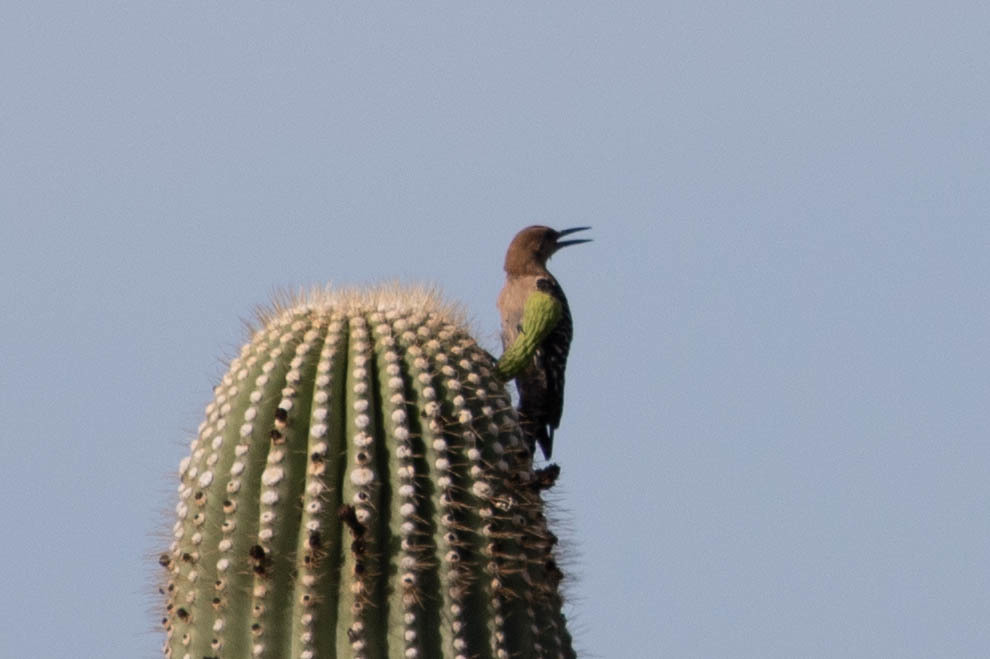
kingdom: Animalia
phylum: Chordata
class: Aves
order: Piciformes
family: Picidae
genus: Melanerpes
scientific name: Melanerpes uropygialis
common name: Gila woodpecker
